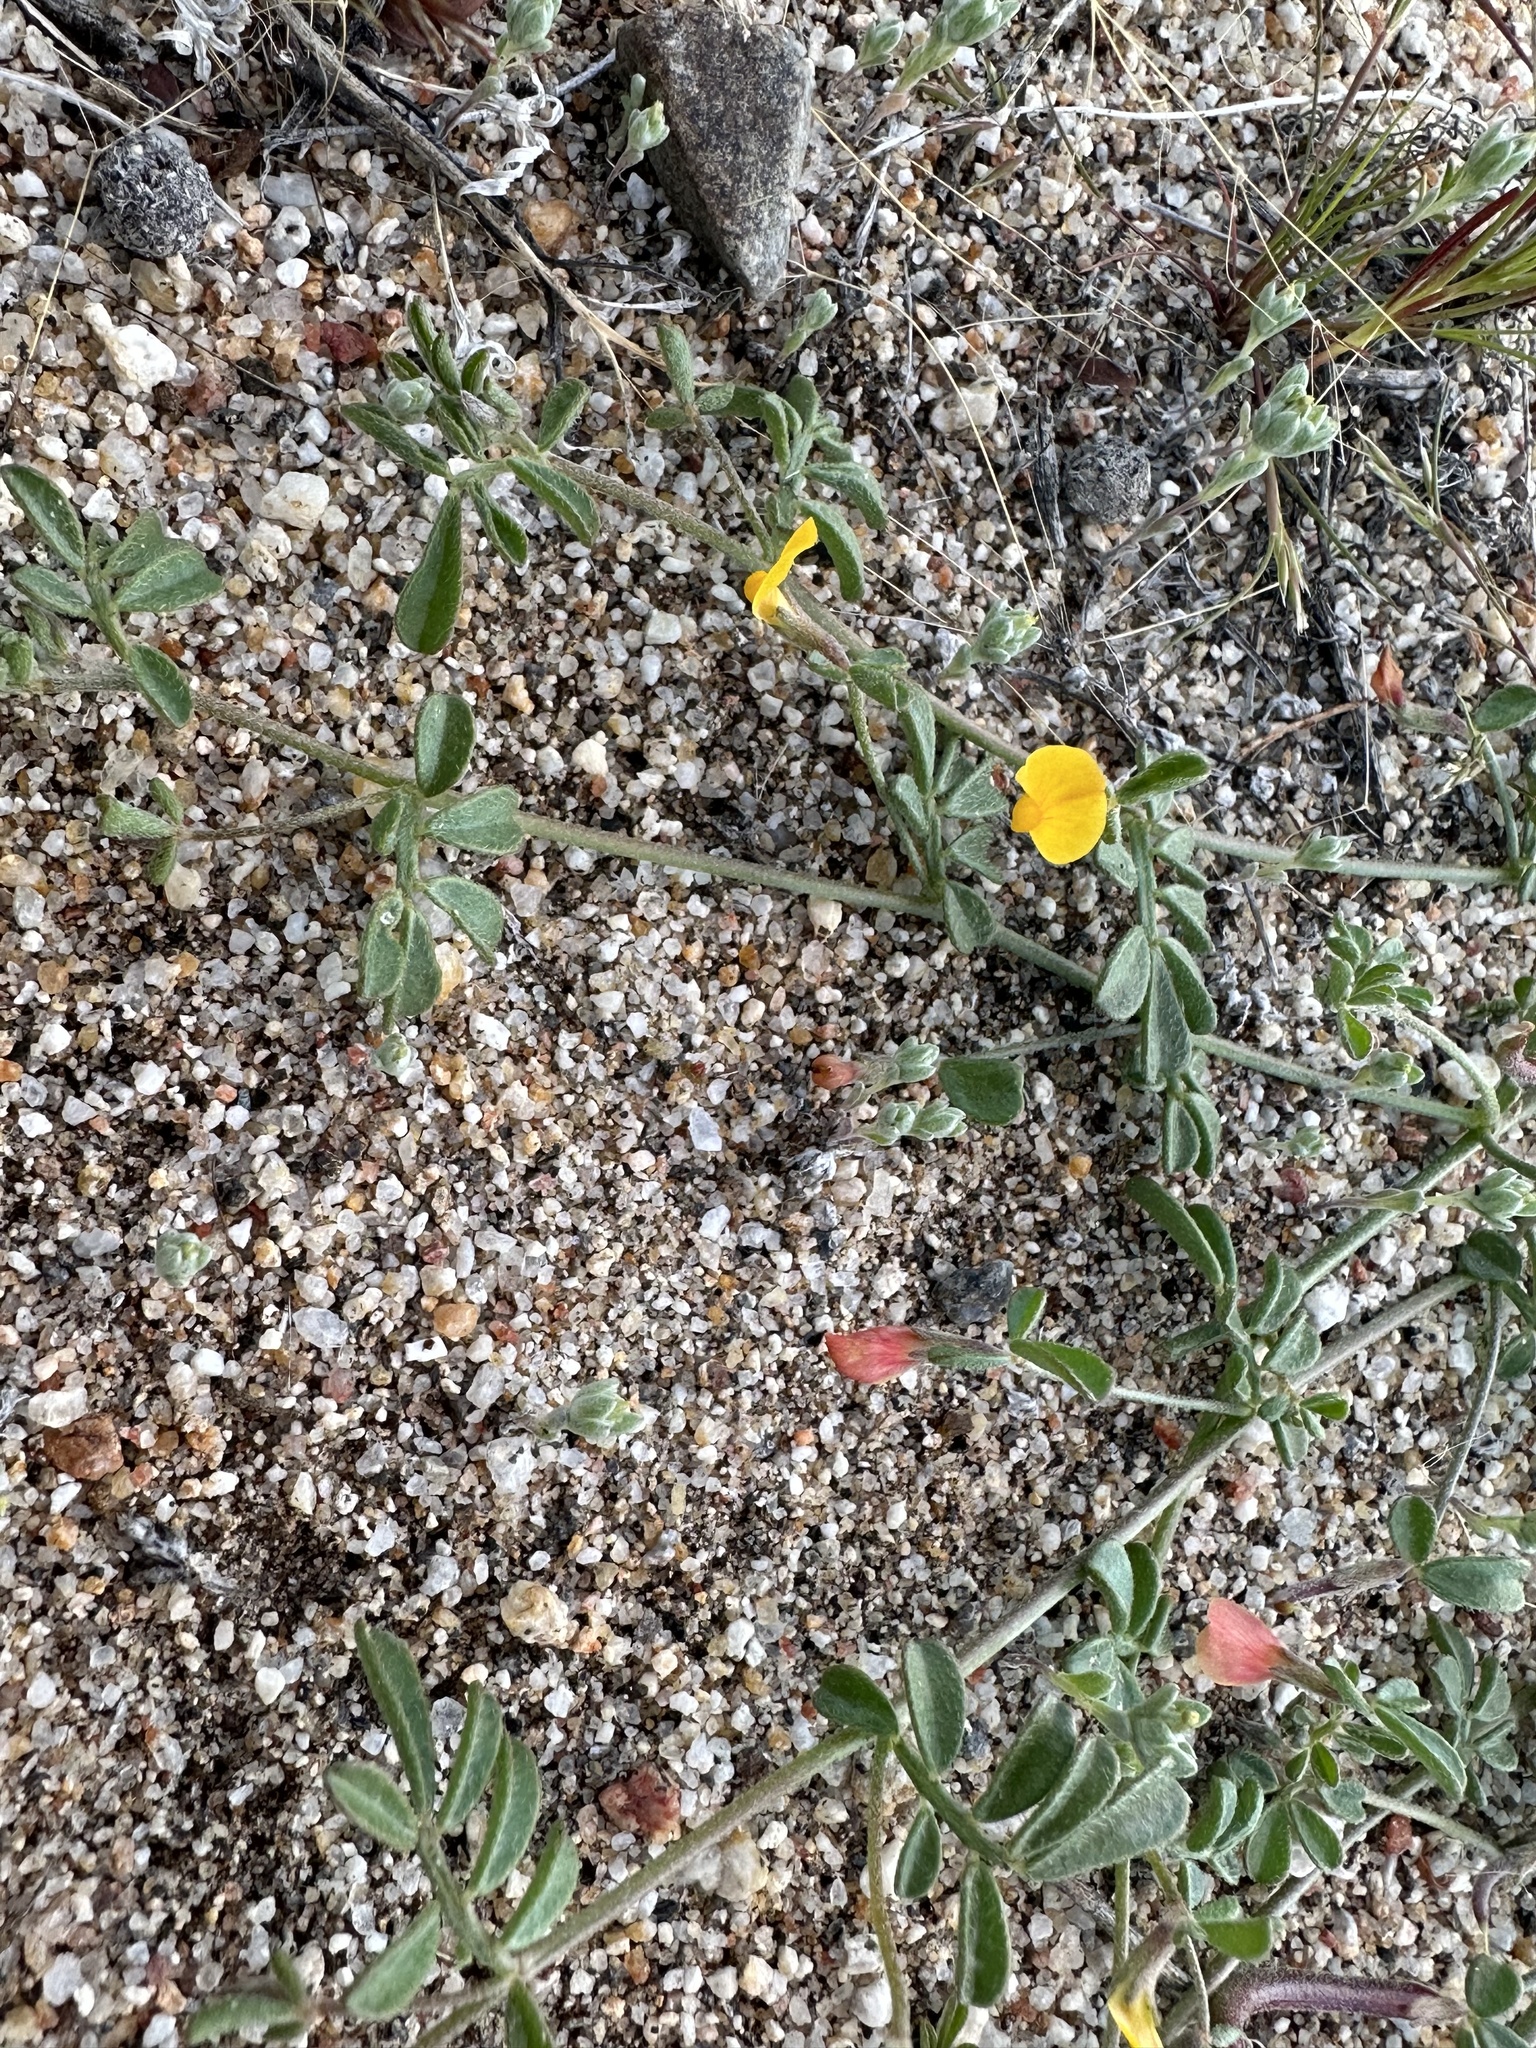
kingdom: Plantae
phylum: Tracheophyta
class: Magnoliopsida
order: Fabales
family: Fabaceae
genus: Acmispon
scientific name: Acmispon strigosus
